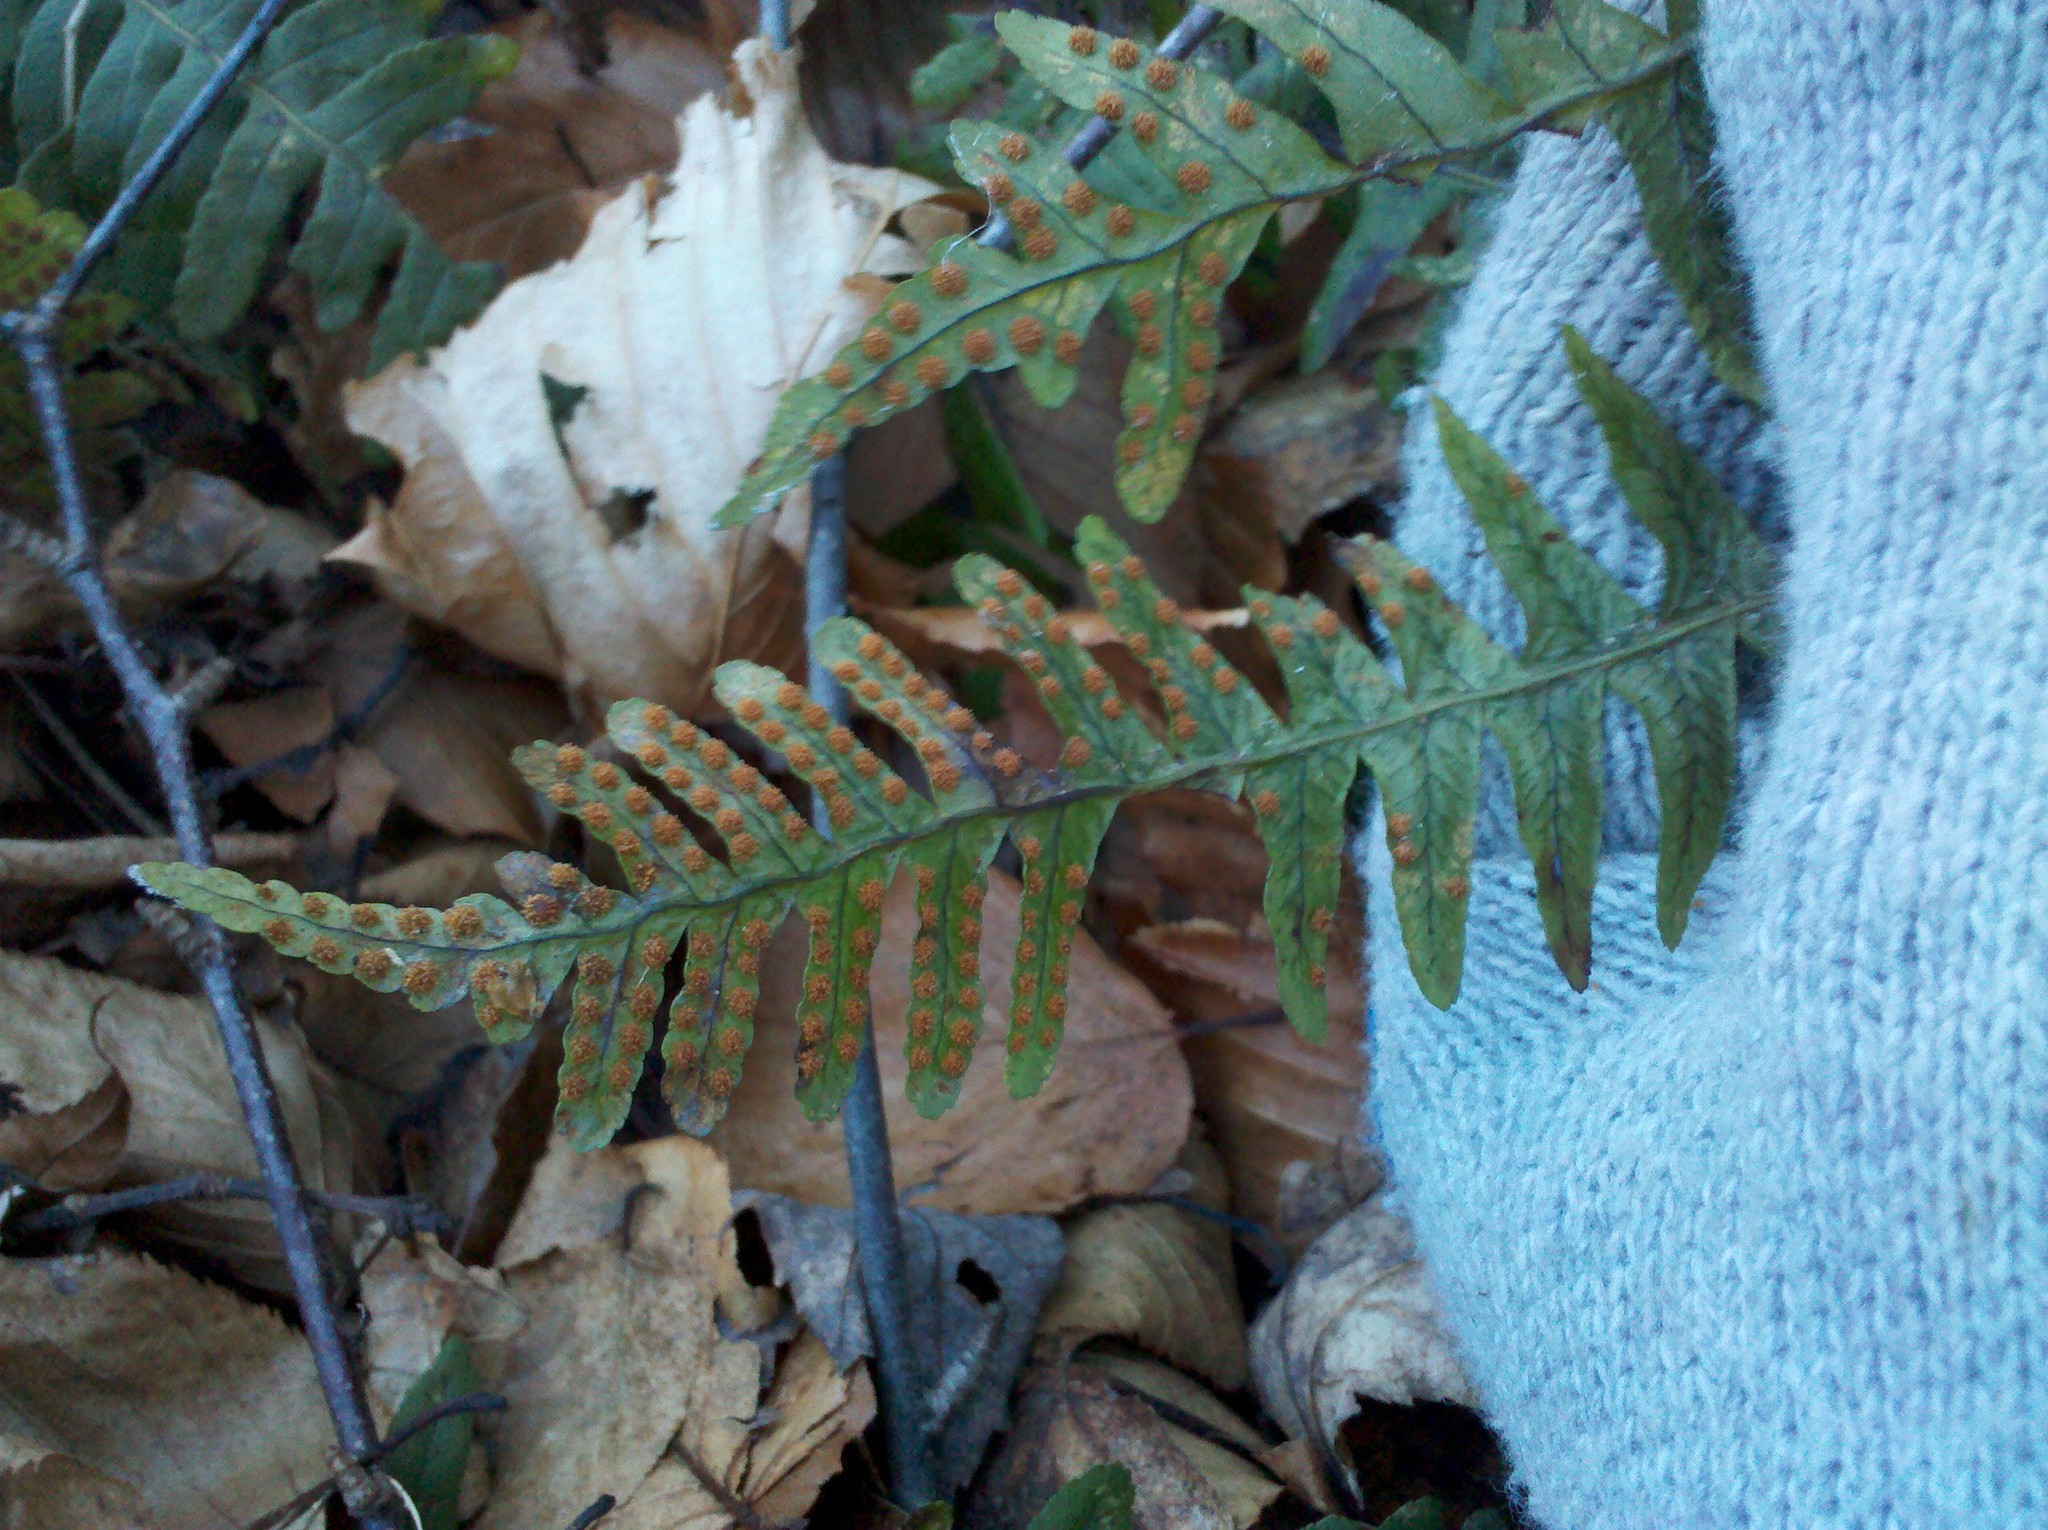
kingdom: Plantae
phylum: Tracheophyta
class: Polypodiopsida
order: Polypodiales
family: Polypodiaceae
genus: Polypodium
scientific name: Polypodium virginianum
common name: American wall fern
